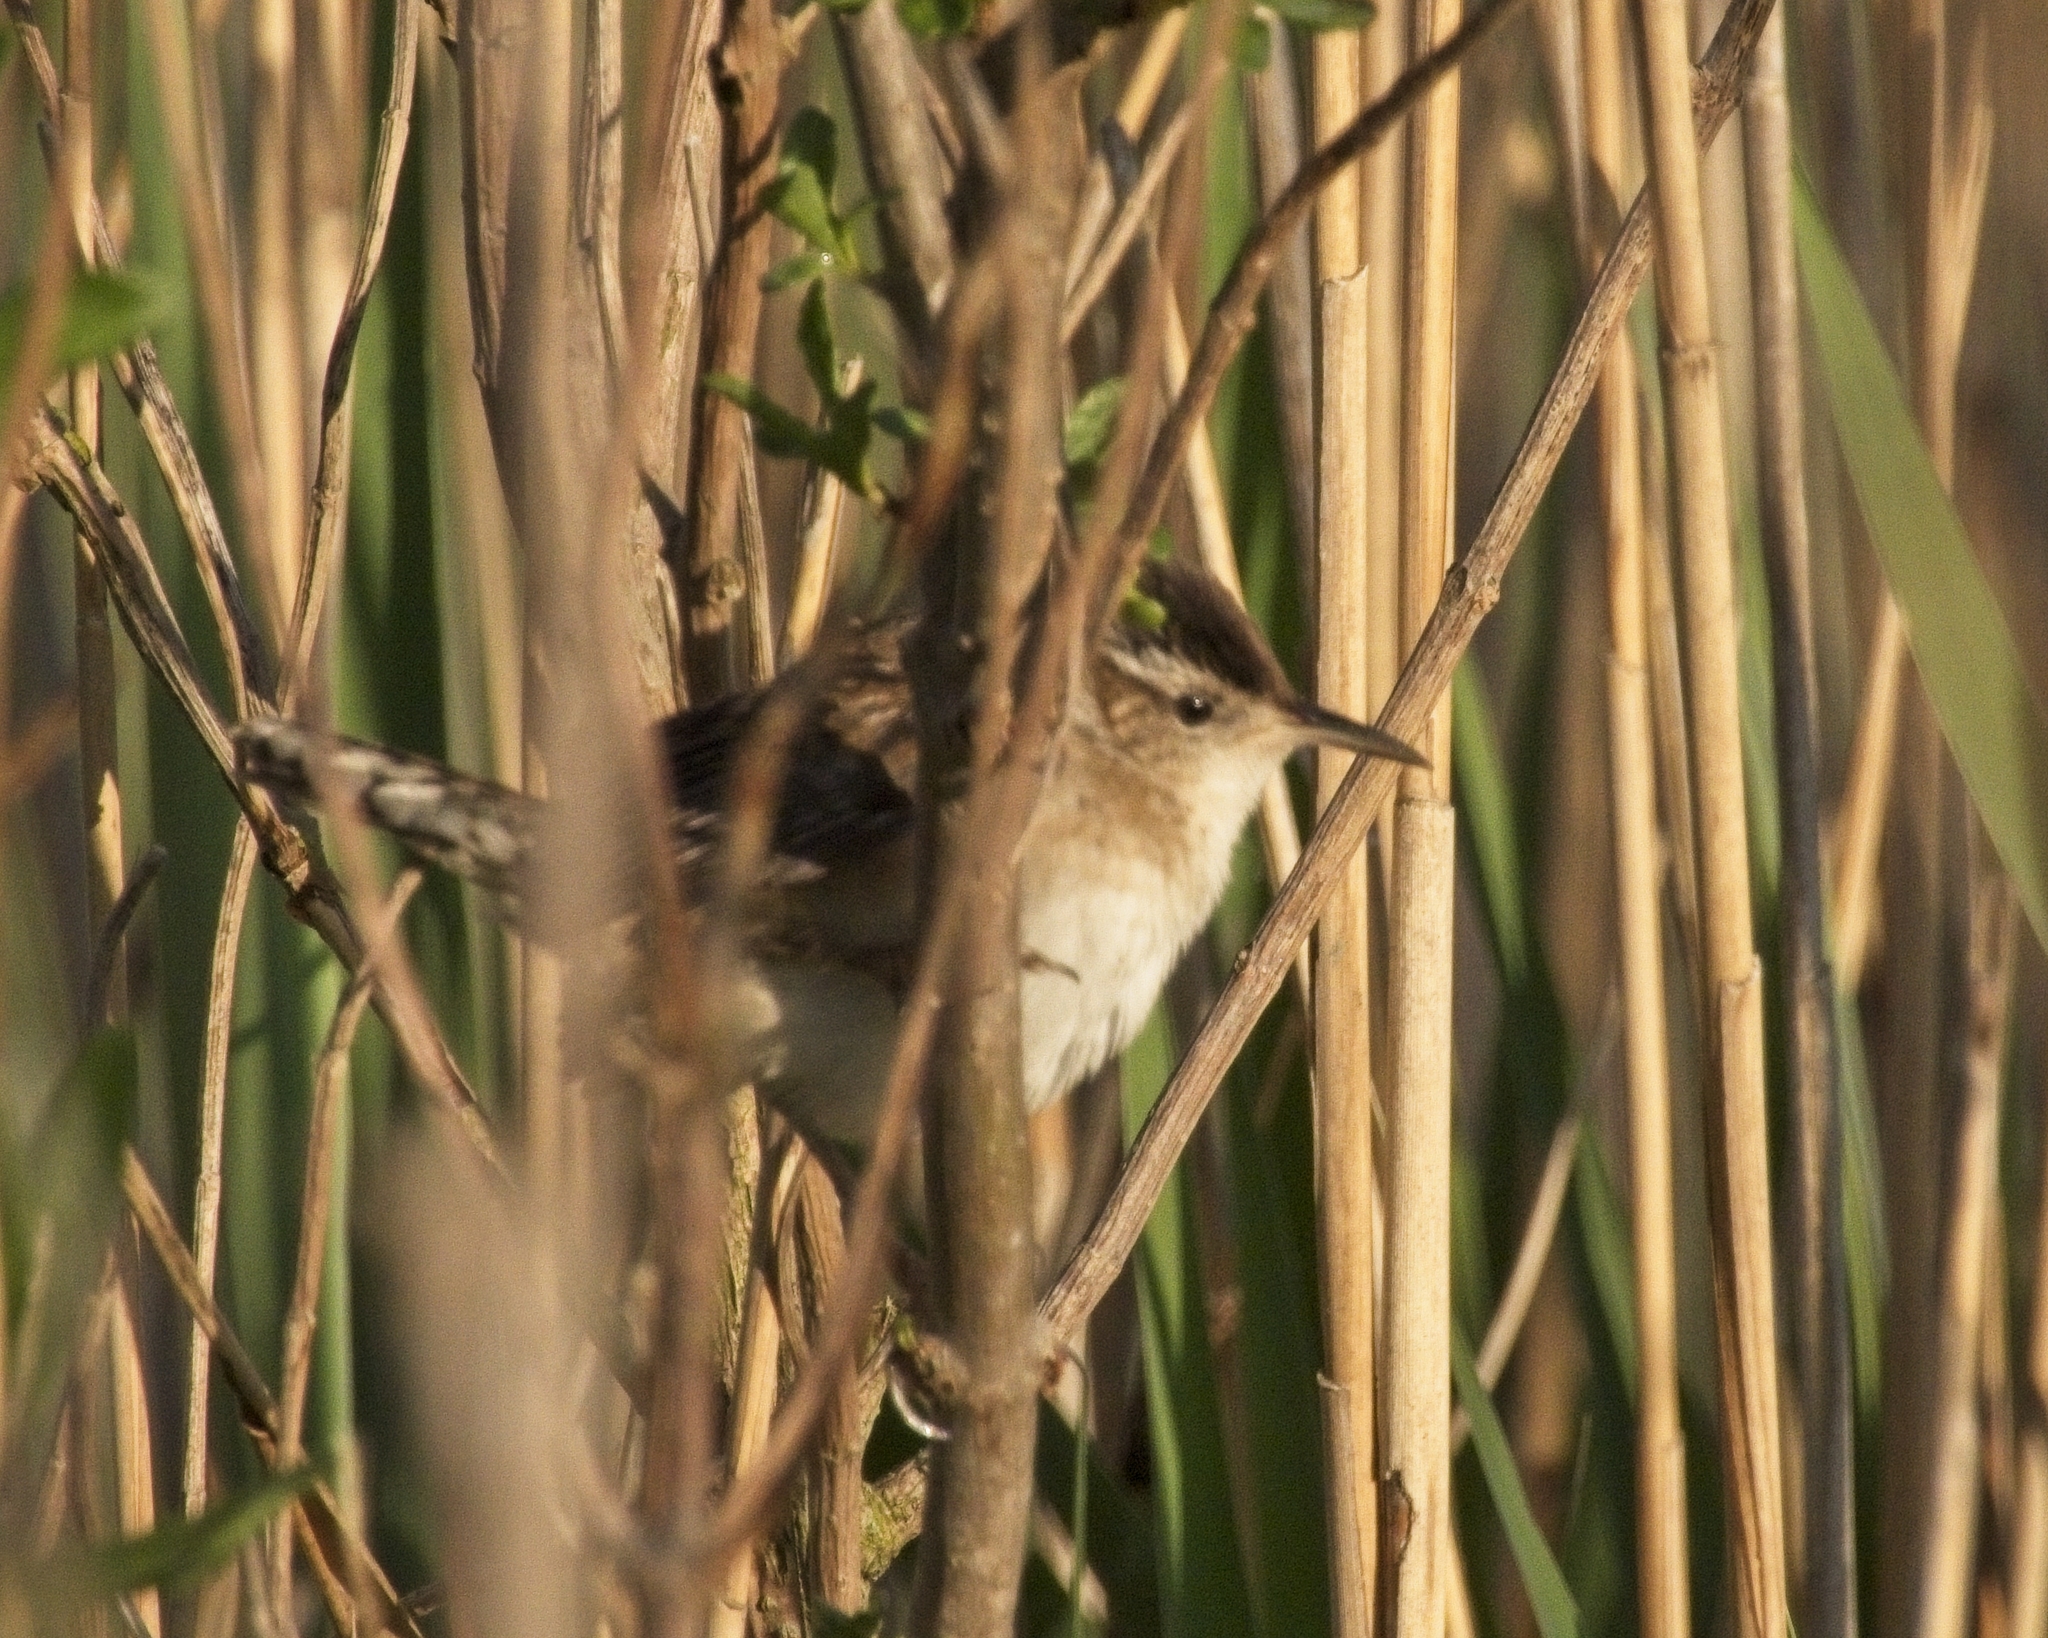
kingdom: Animalia
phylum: Chordata
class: Aves
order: Passeriformes
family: Troglodytidae
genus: Cistothorus
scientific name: Cistothorus palustris
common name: Marsh wren
